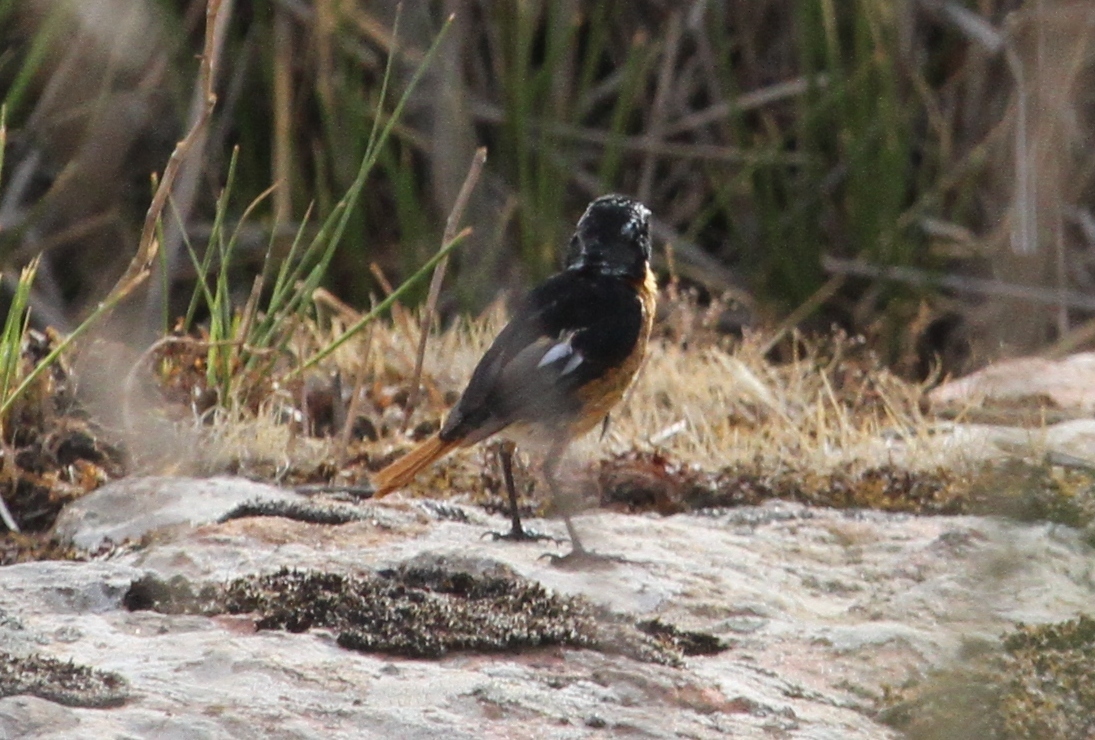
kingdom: Animalia
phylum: Chordata
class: Aves
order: Passeriformes
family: Muscicapidae
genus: Phoenicurus
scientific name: Phoenicurus moussieri
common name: Moussier's redstart
